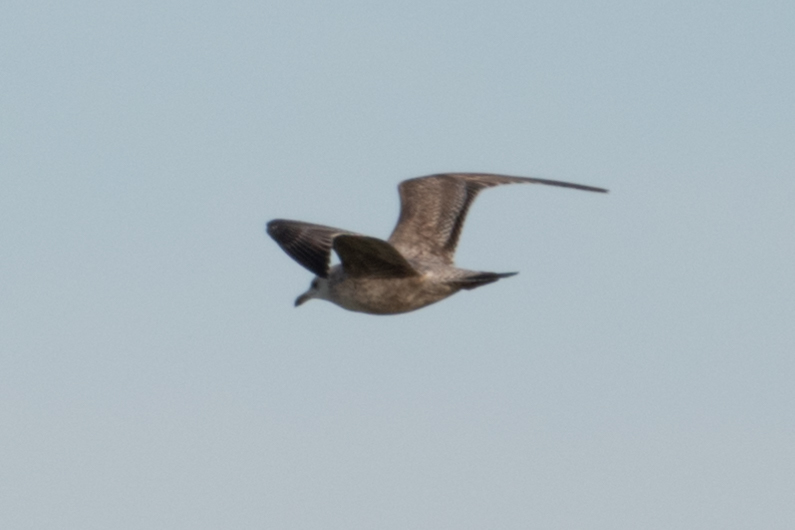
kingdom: Animalia
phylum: Chordata
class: Aves
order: Charadriiformes
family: Laridae
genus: Larus
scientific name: Larus argentatus
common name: Herring gull
